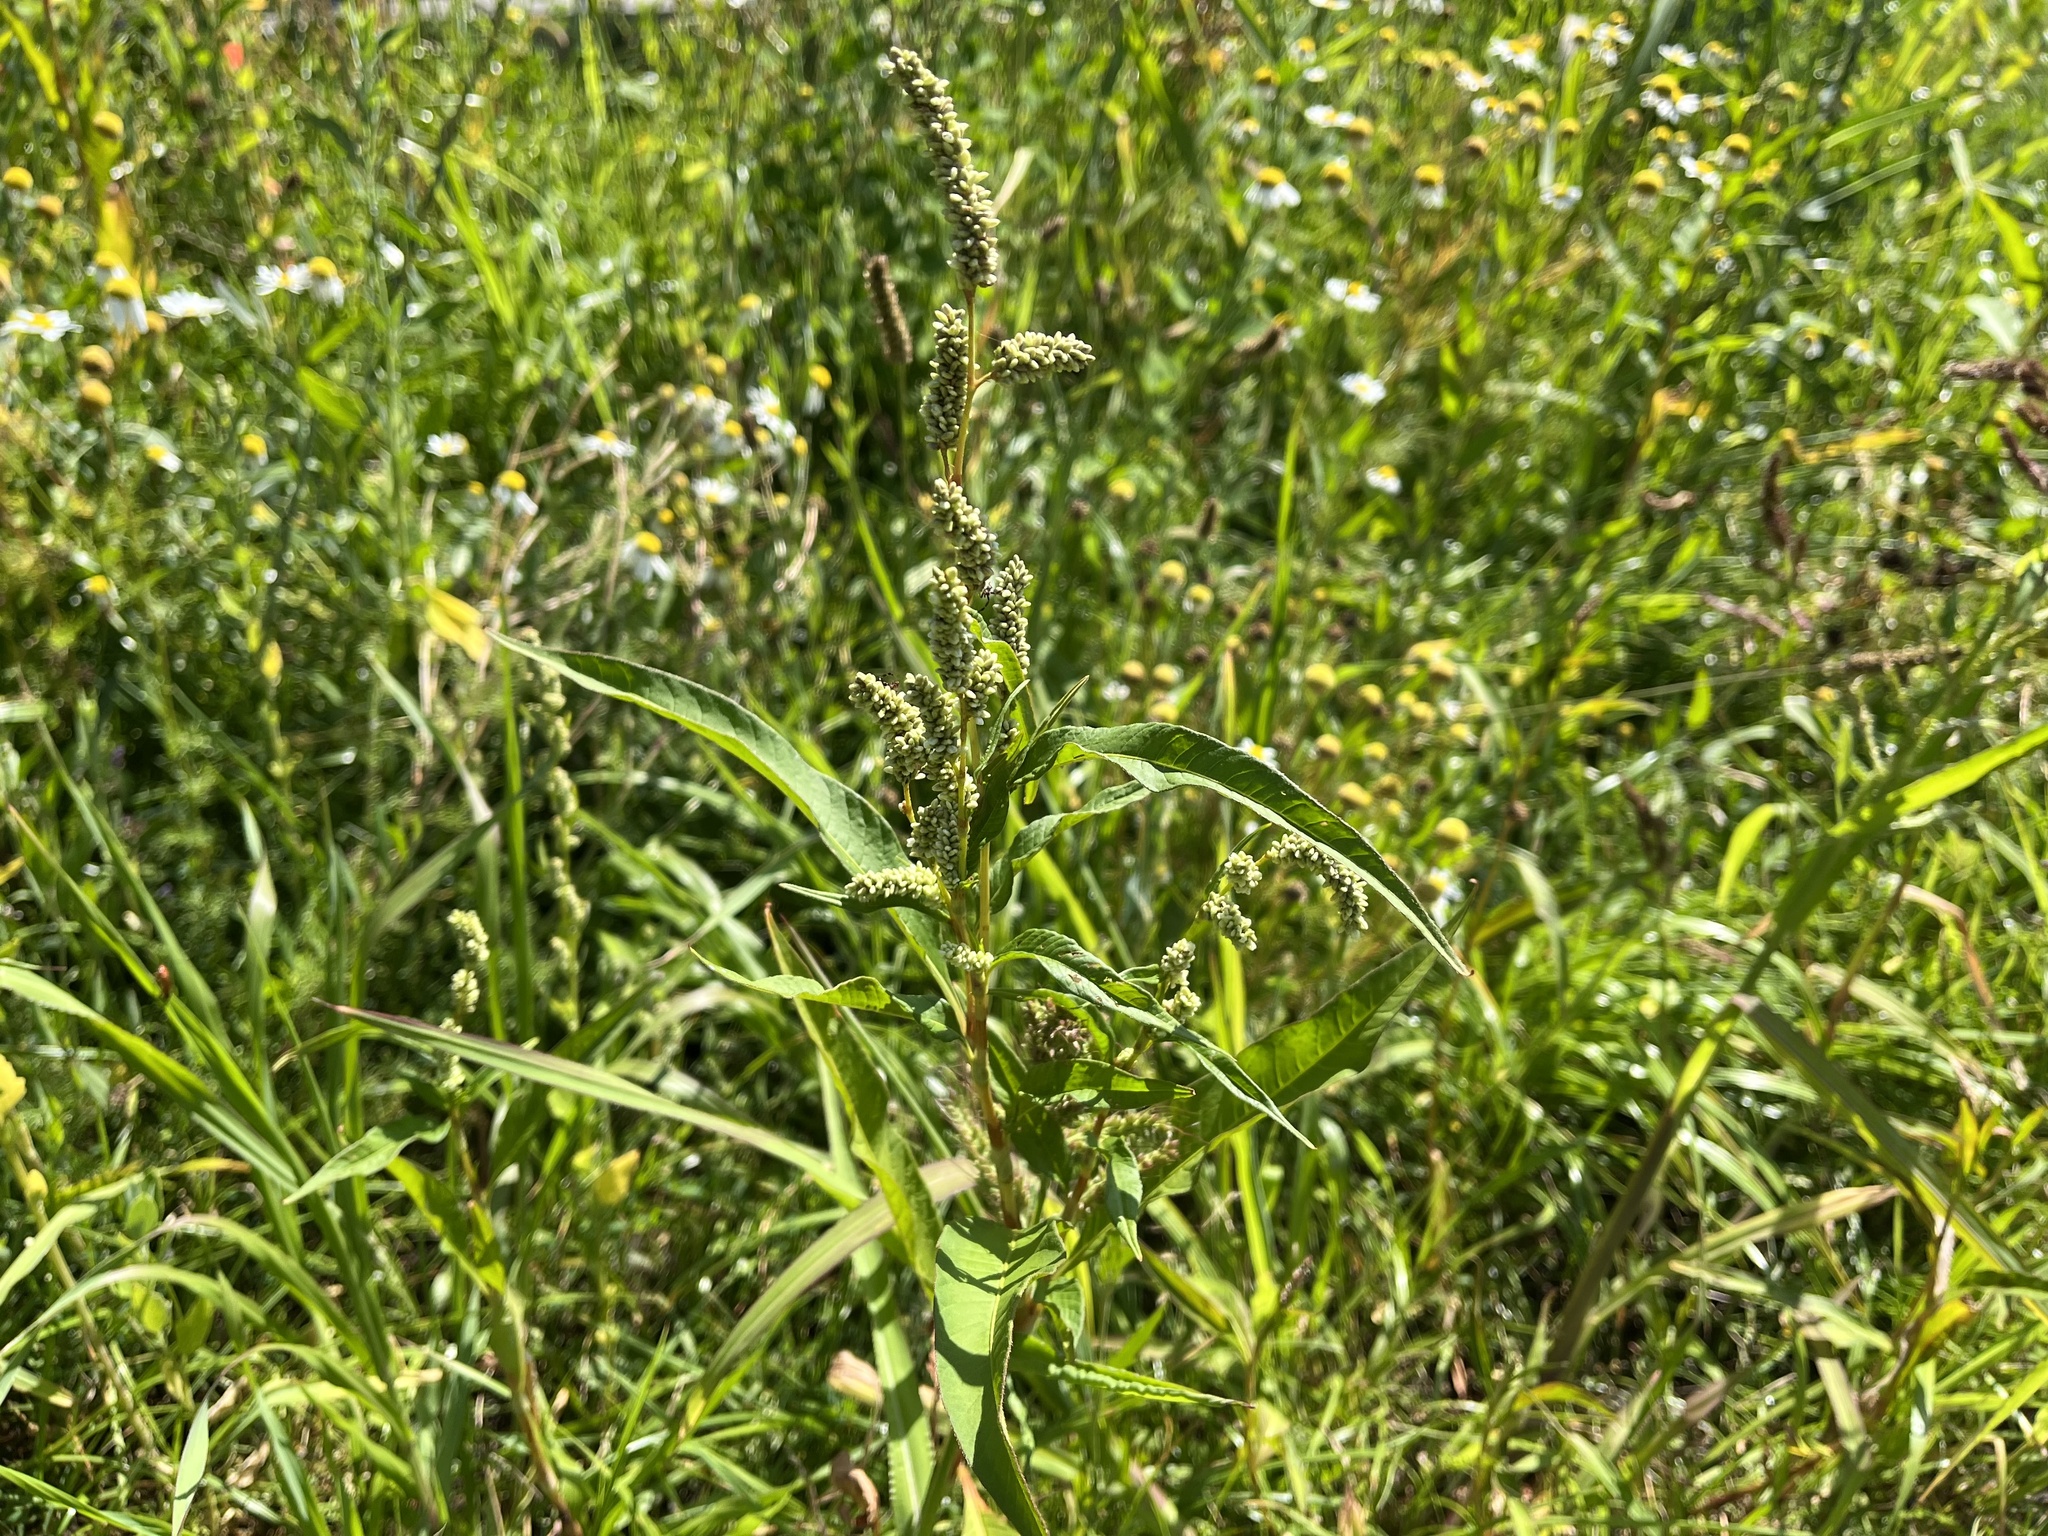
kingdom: Plantae
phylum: Tracheophyta
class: Magnoliopsida
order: Caryophyllales
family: Polygonaceae
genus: Persicaria
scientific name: Persicaria lapathifolia
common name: Curlytop knotweed
